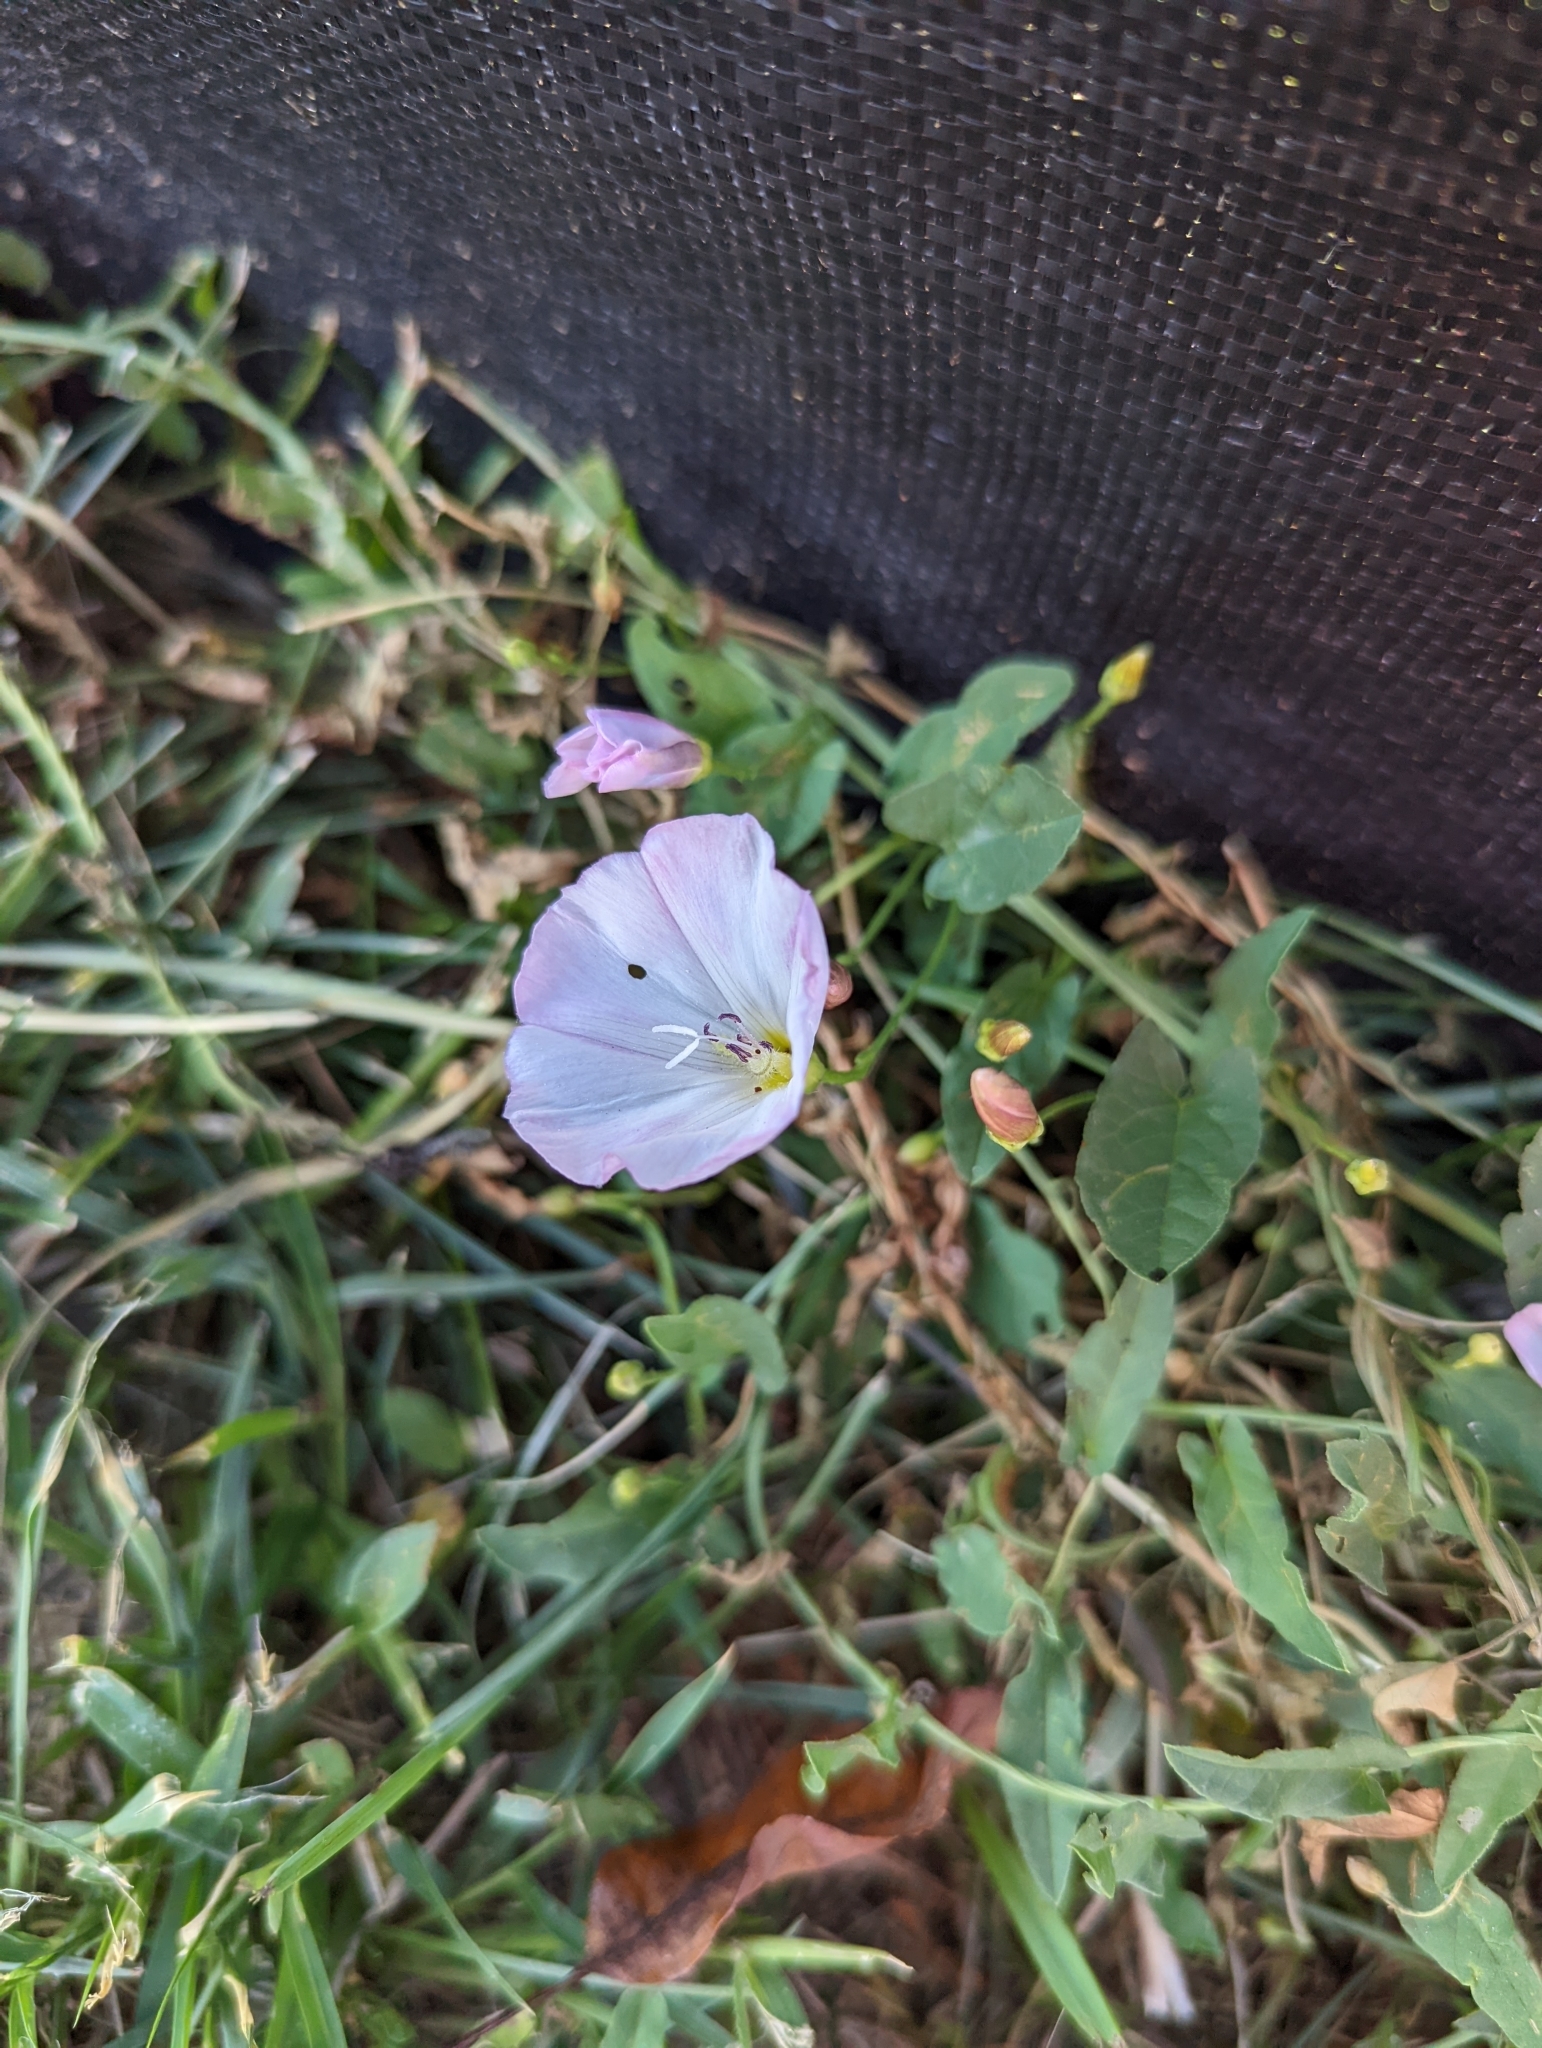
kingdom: Plantae
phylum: Tracheophyta
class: Magnoliopsida
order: Solanales
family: Convolvulaceae
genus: Convolvulus
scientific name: Convolvulus arvensis
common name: Field bindweed
